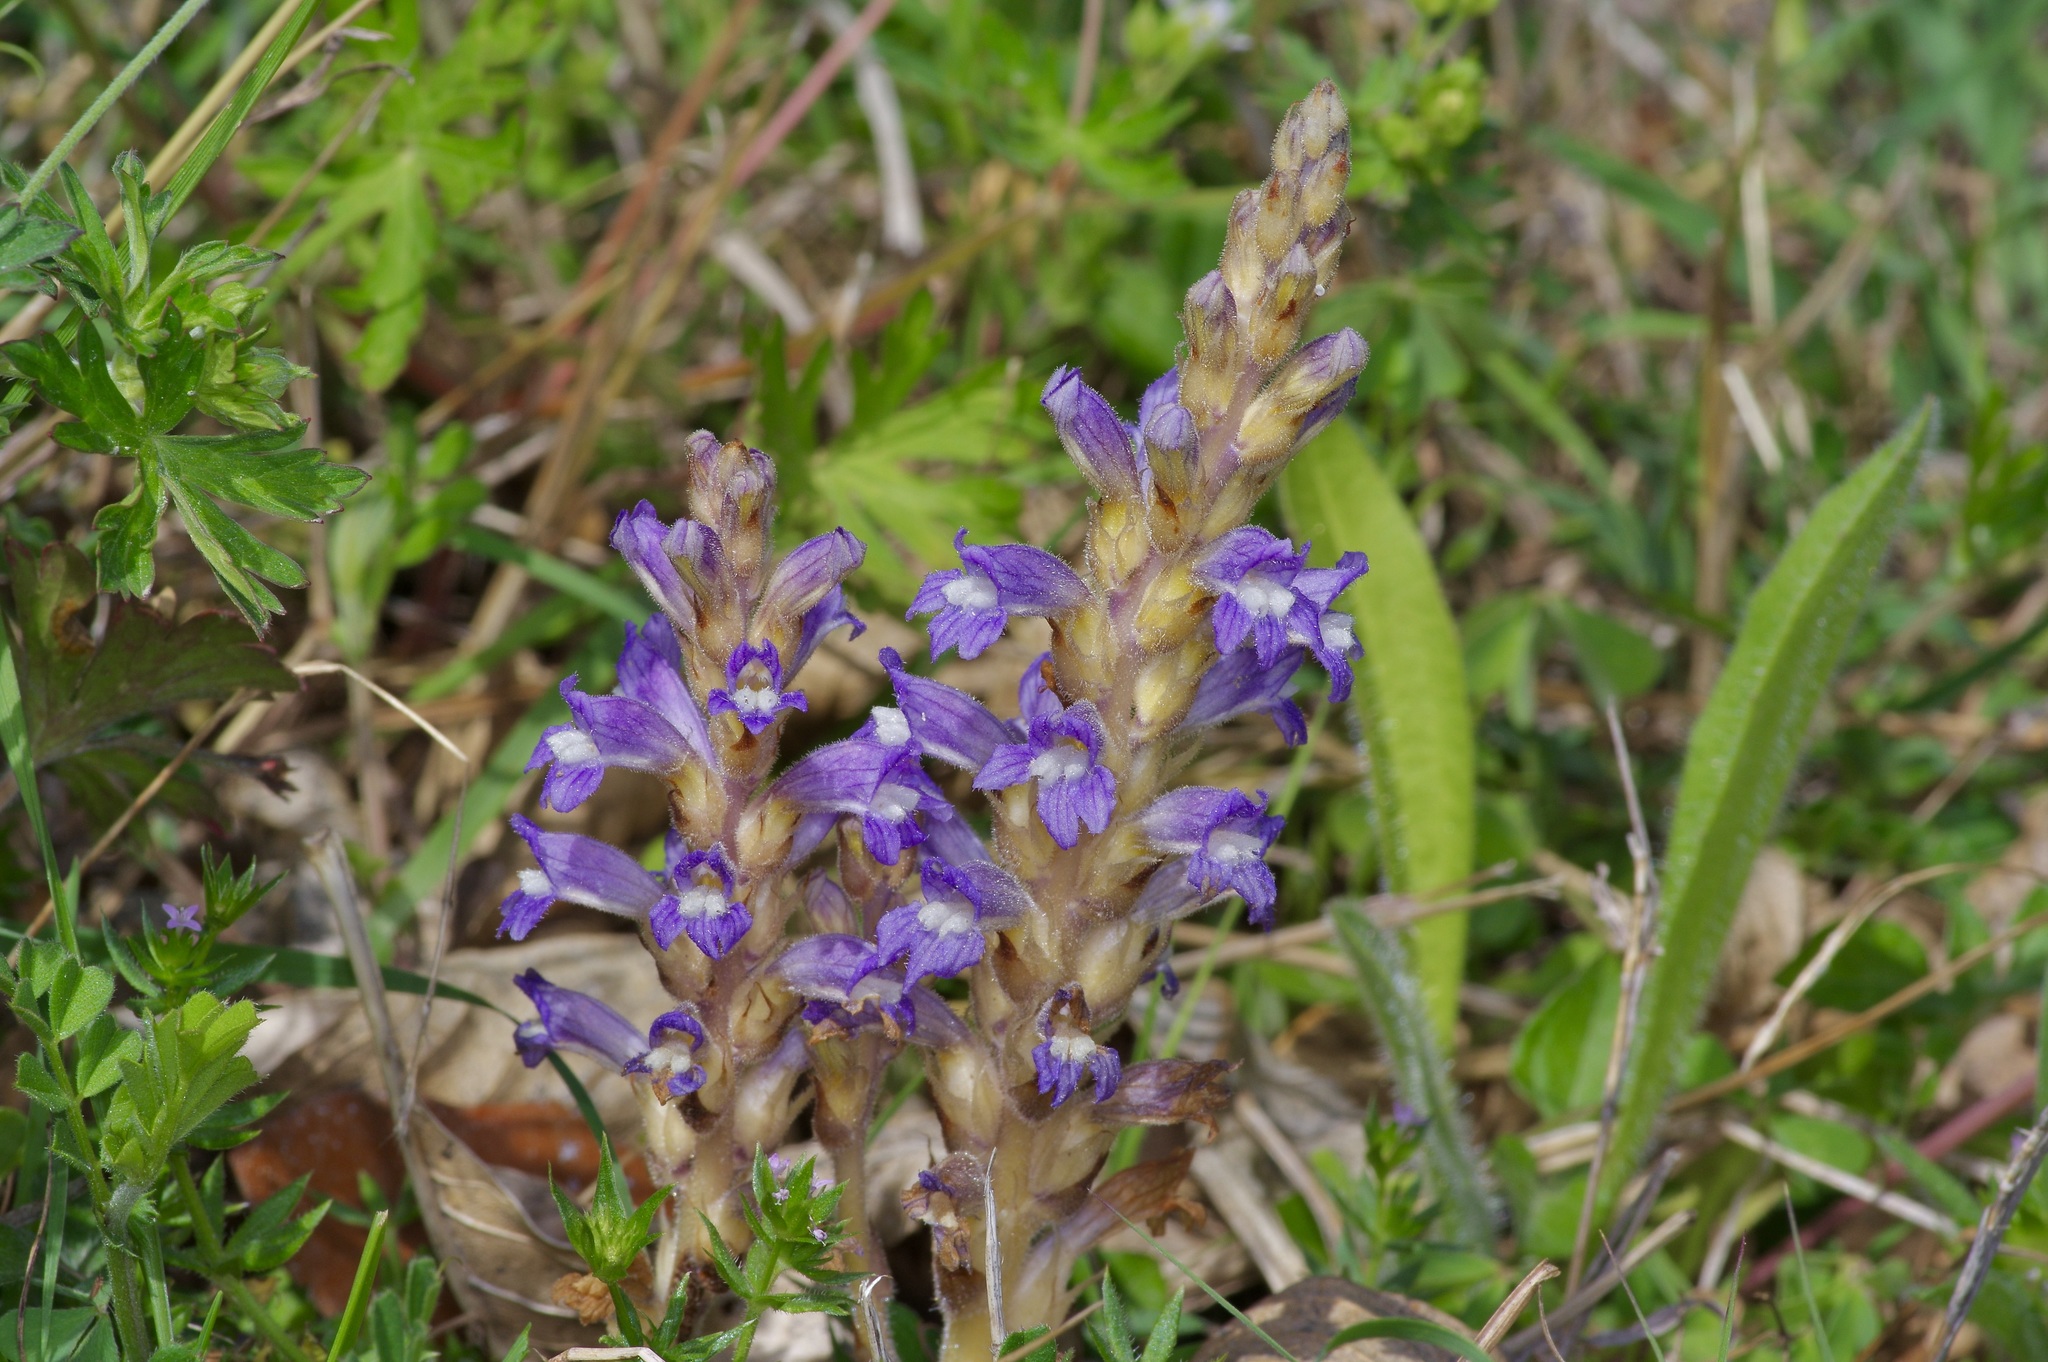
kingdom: Plantae
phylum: Tracheophyta
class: Magnoliopsida
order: Lamiales
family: Orobanchaceae
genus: Phelipanche
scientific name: Phelipanche mutelii
